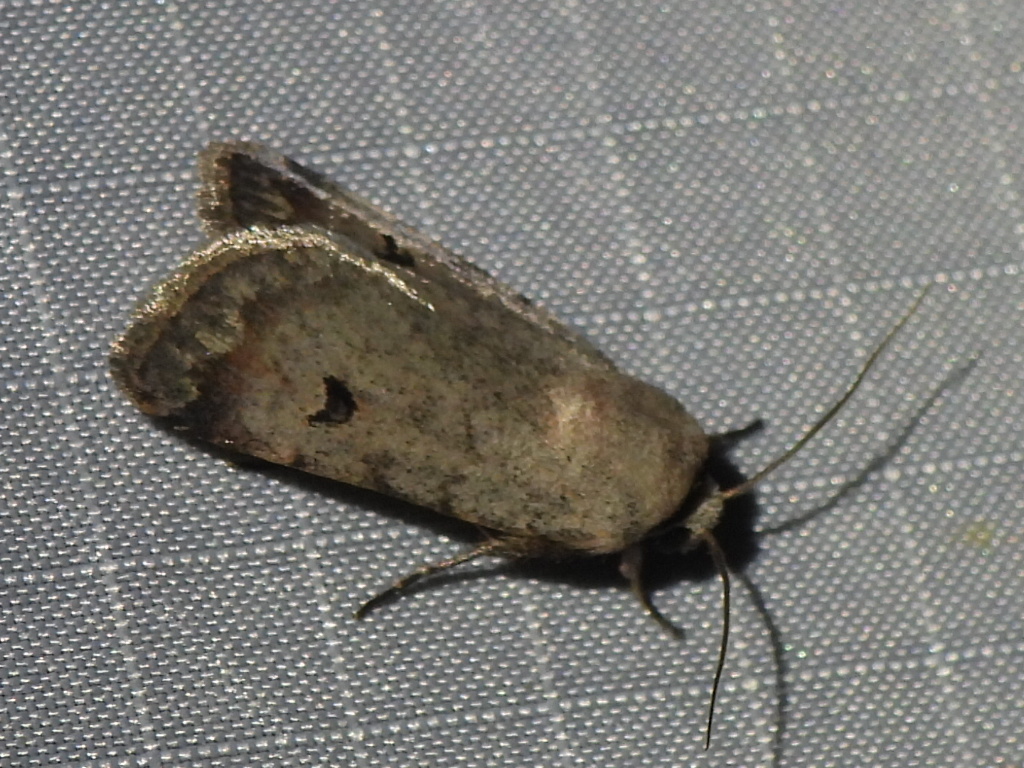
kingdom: Animalia
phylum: Arthropoda
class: Insecta
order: Lepidoptera
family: Noctuidae
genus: Anicla
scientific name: Anicla infecta
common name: Green cutworm
